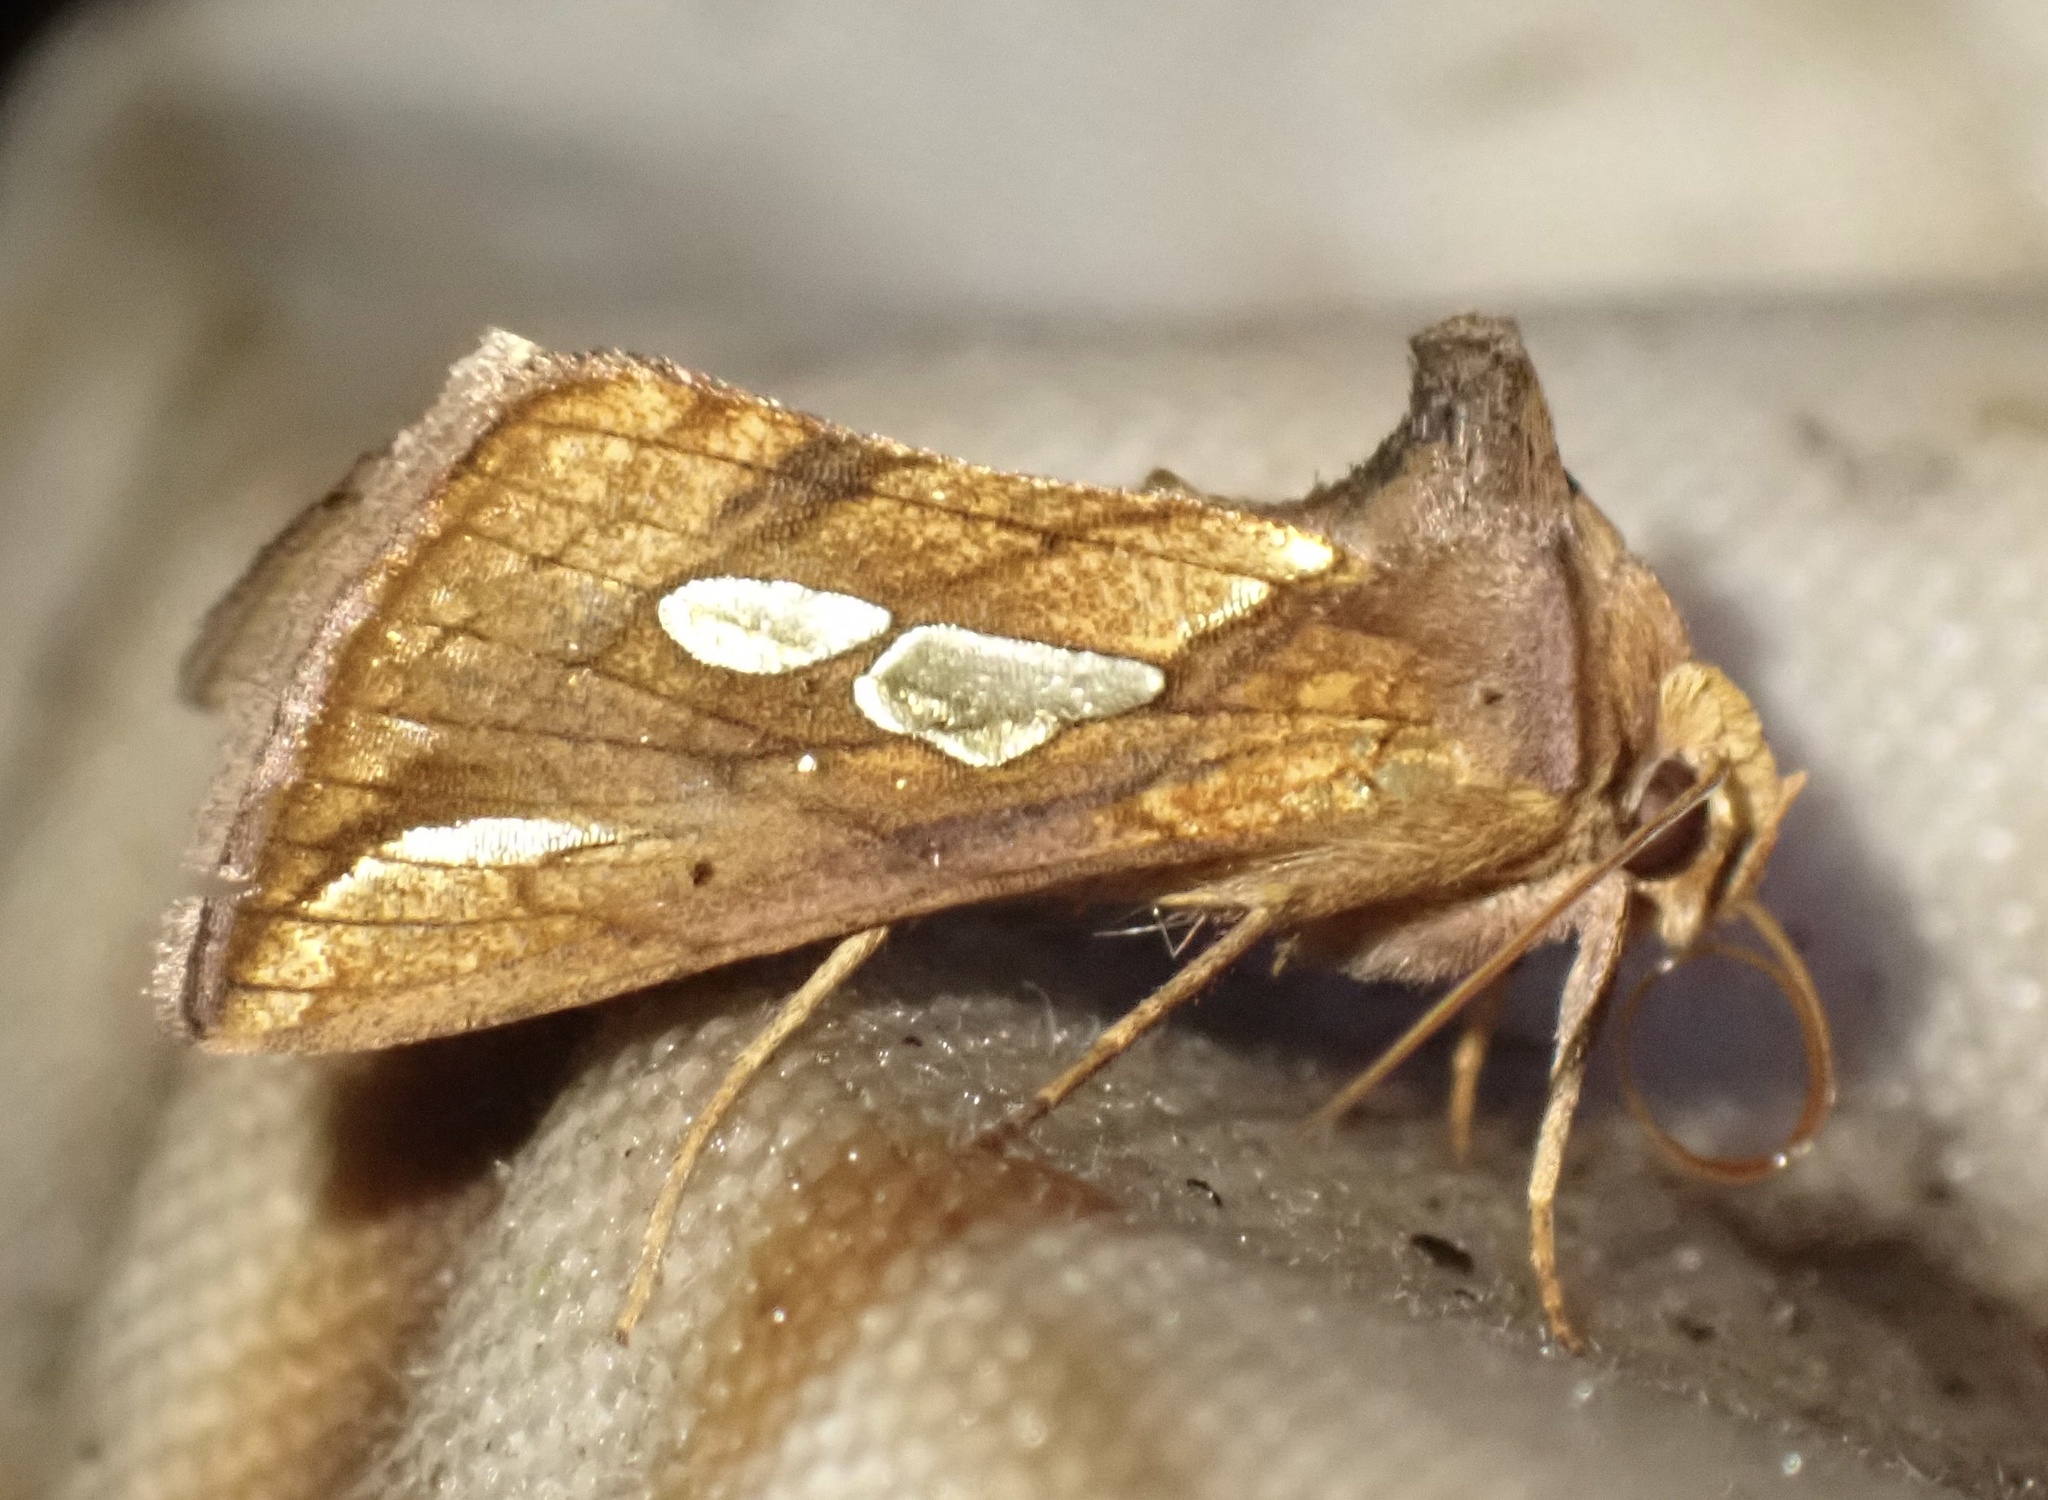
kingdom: Animalia
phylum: Arthropoda
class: Insecta
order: Lepidoptera
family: Noctuidae
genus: Plusia
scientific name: Plusia festucae
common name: Gold spot
